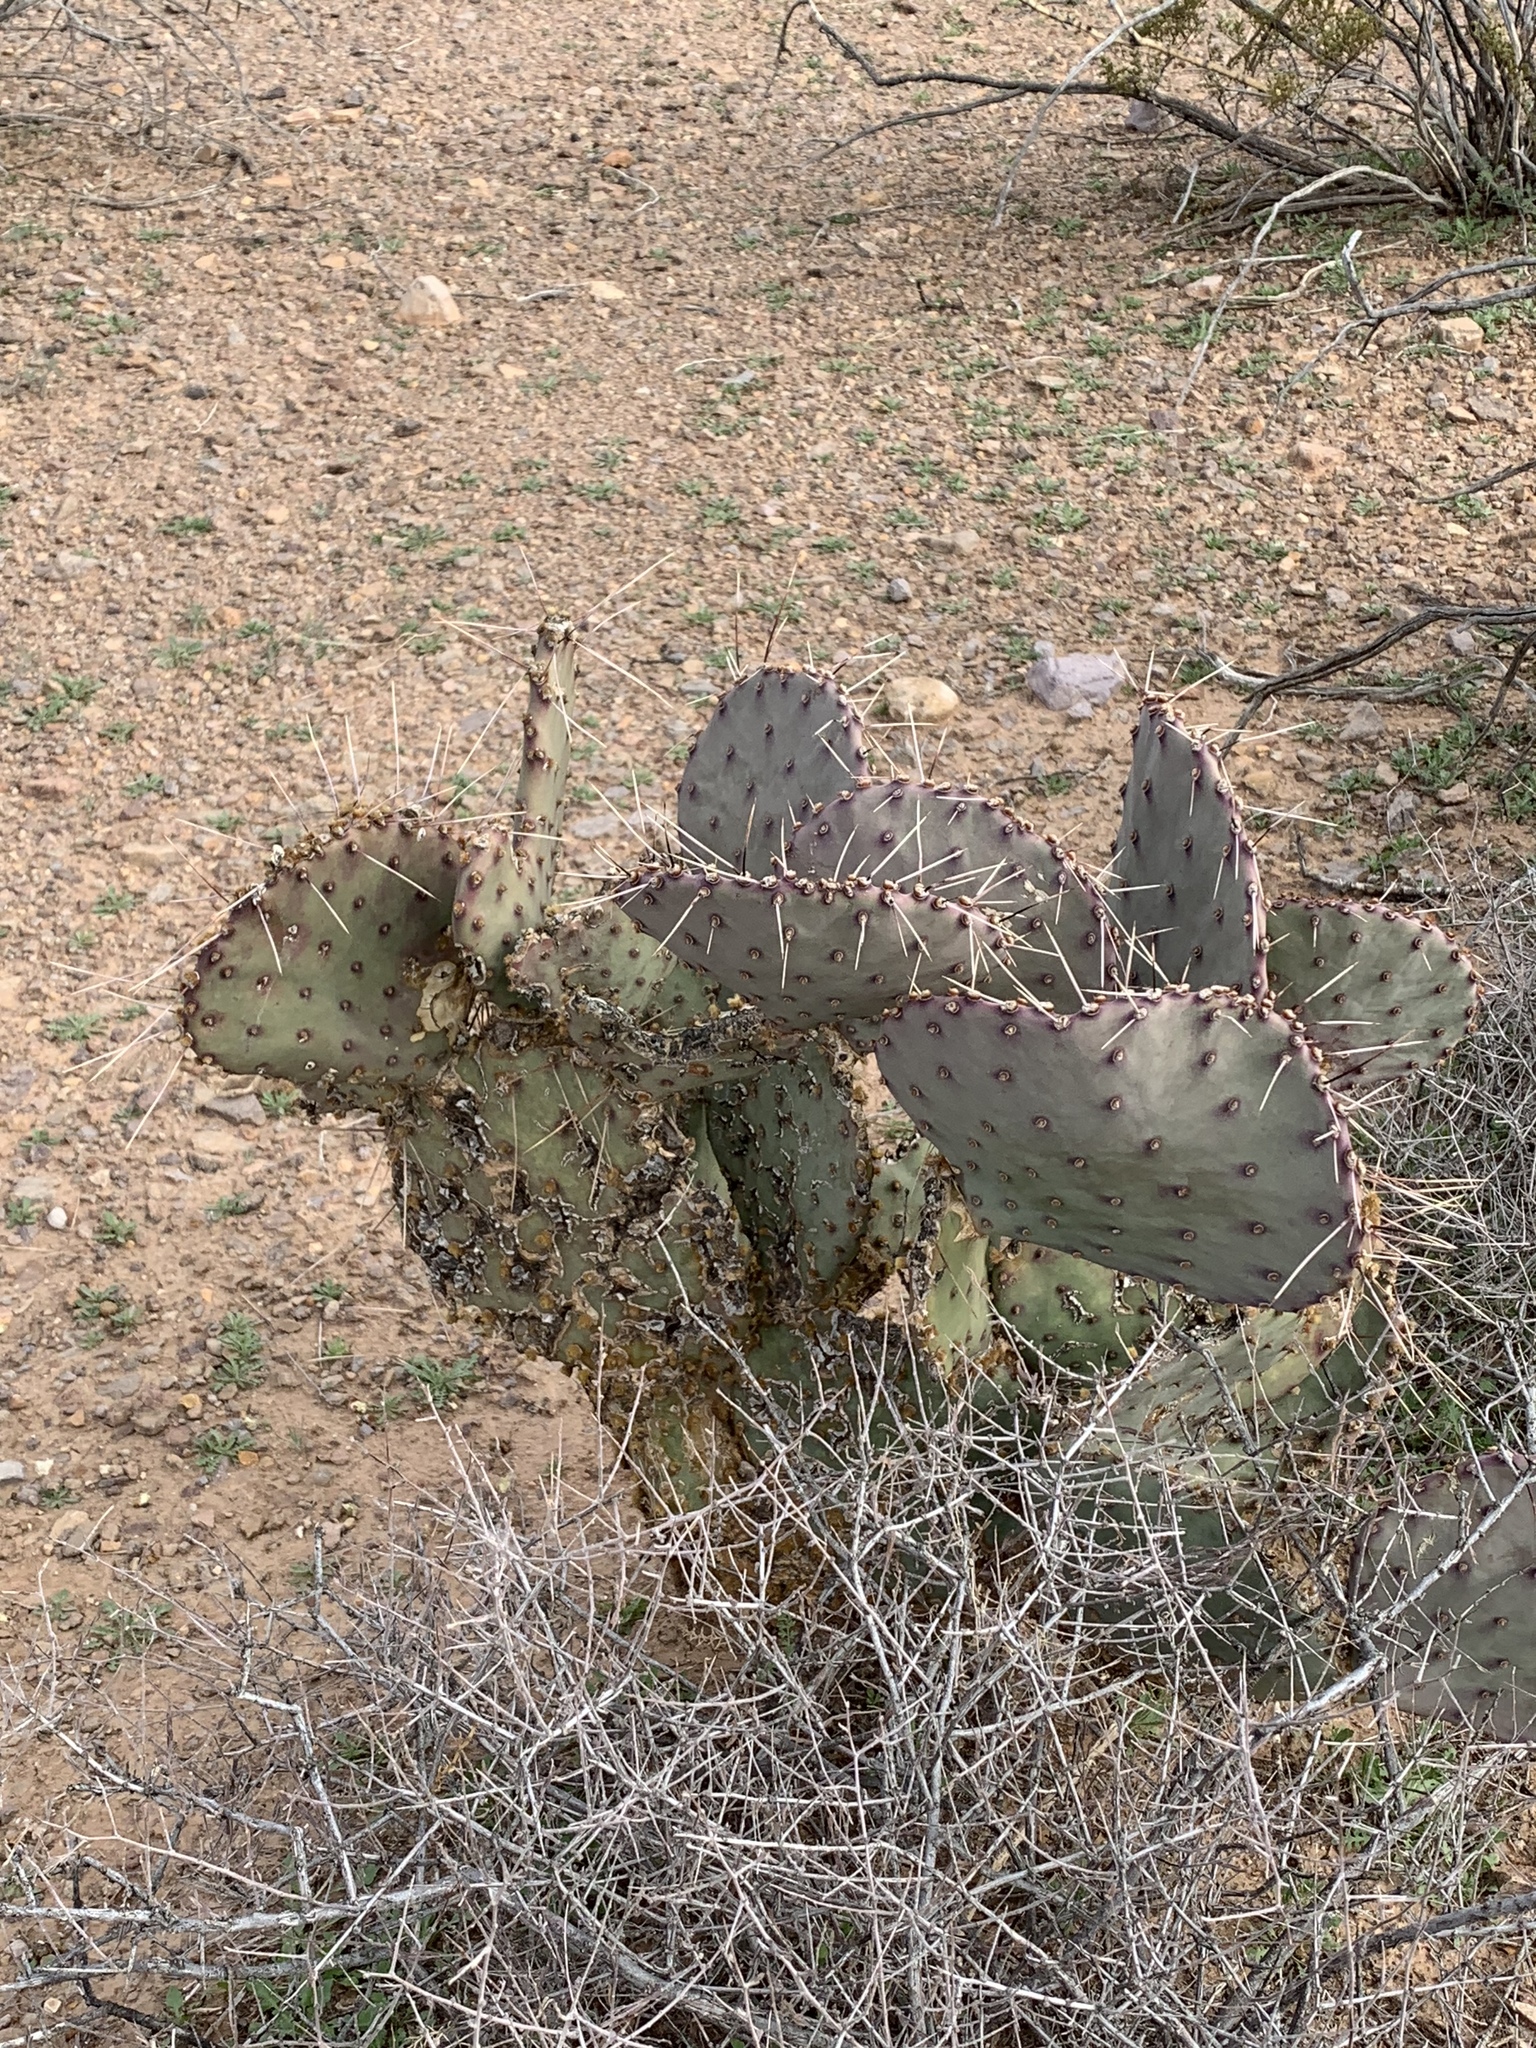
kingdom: Plantae
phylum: Tracheophyta
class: Magnoliopsida
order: Caryophyllales
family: Cactaceae
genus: Opuntia
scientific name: Opuntia macrocentra
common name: Purple prickly-pear
